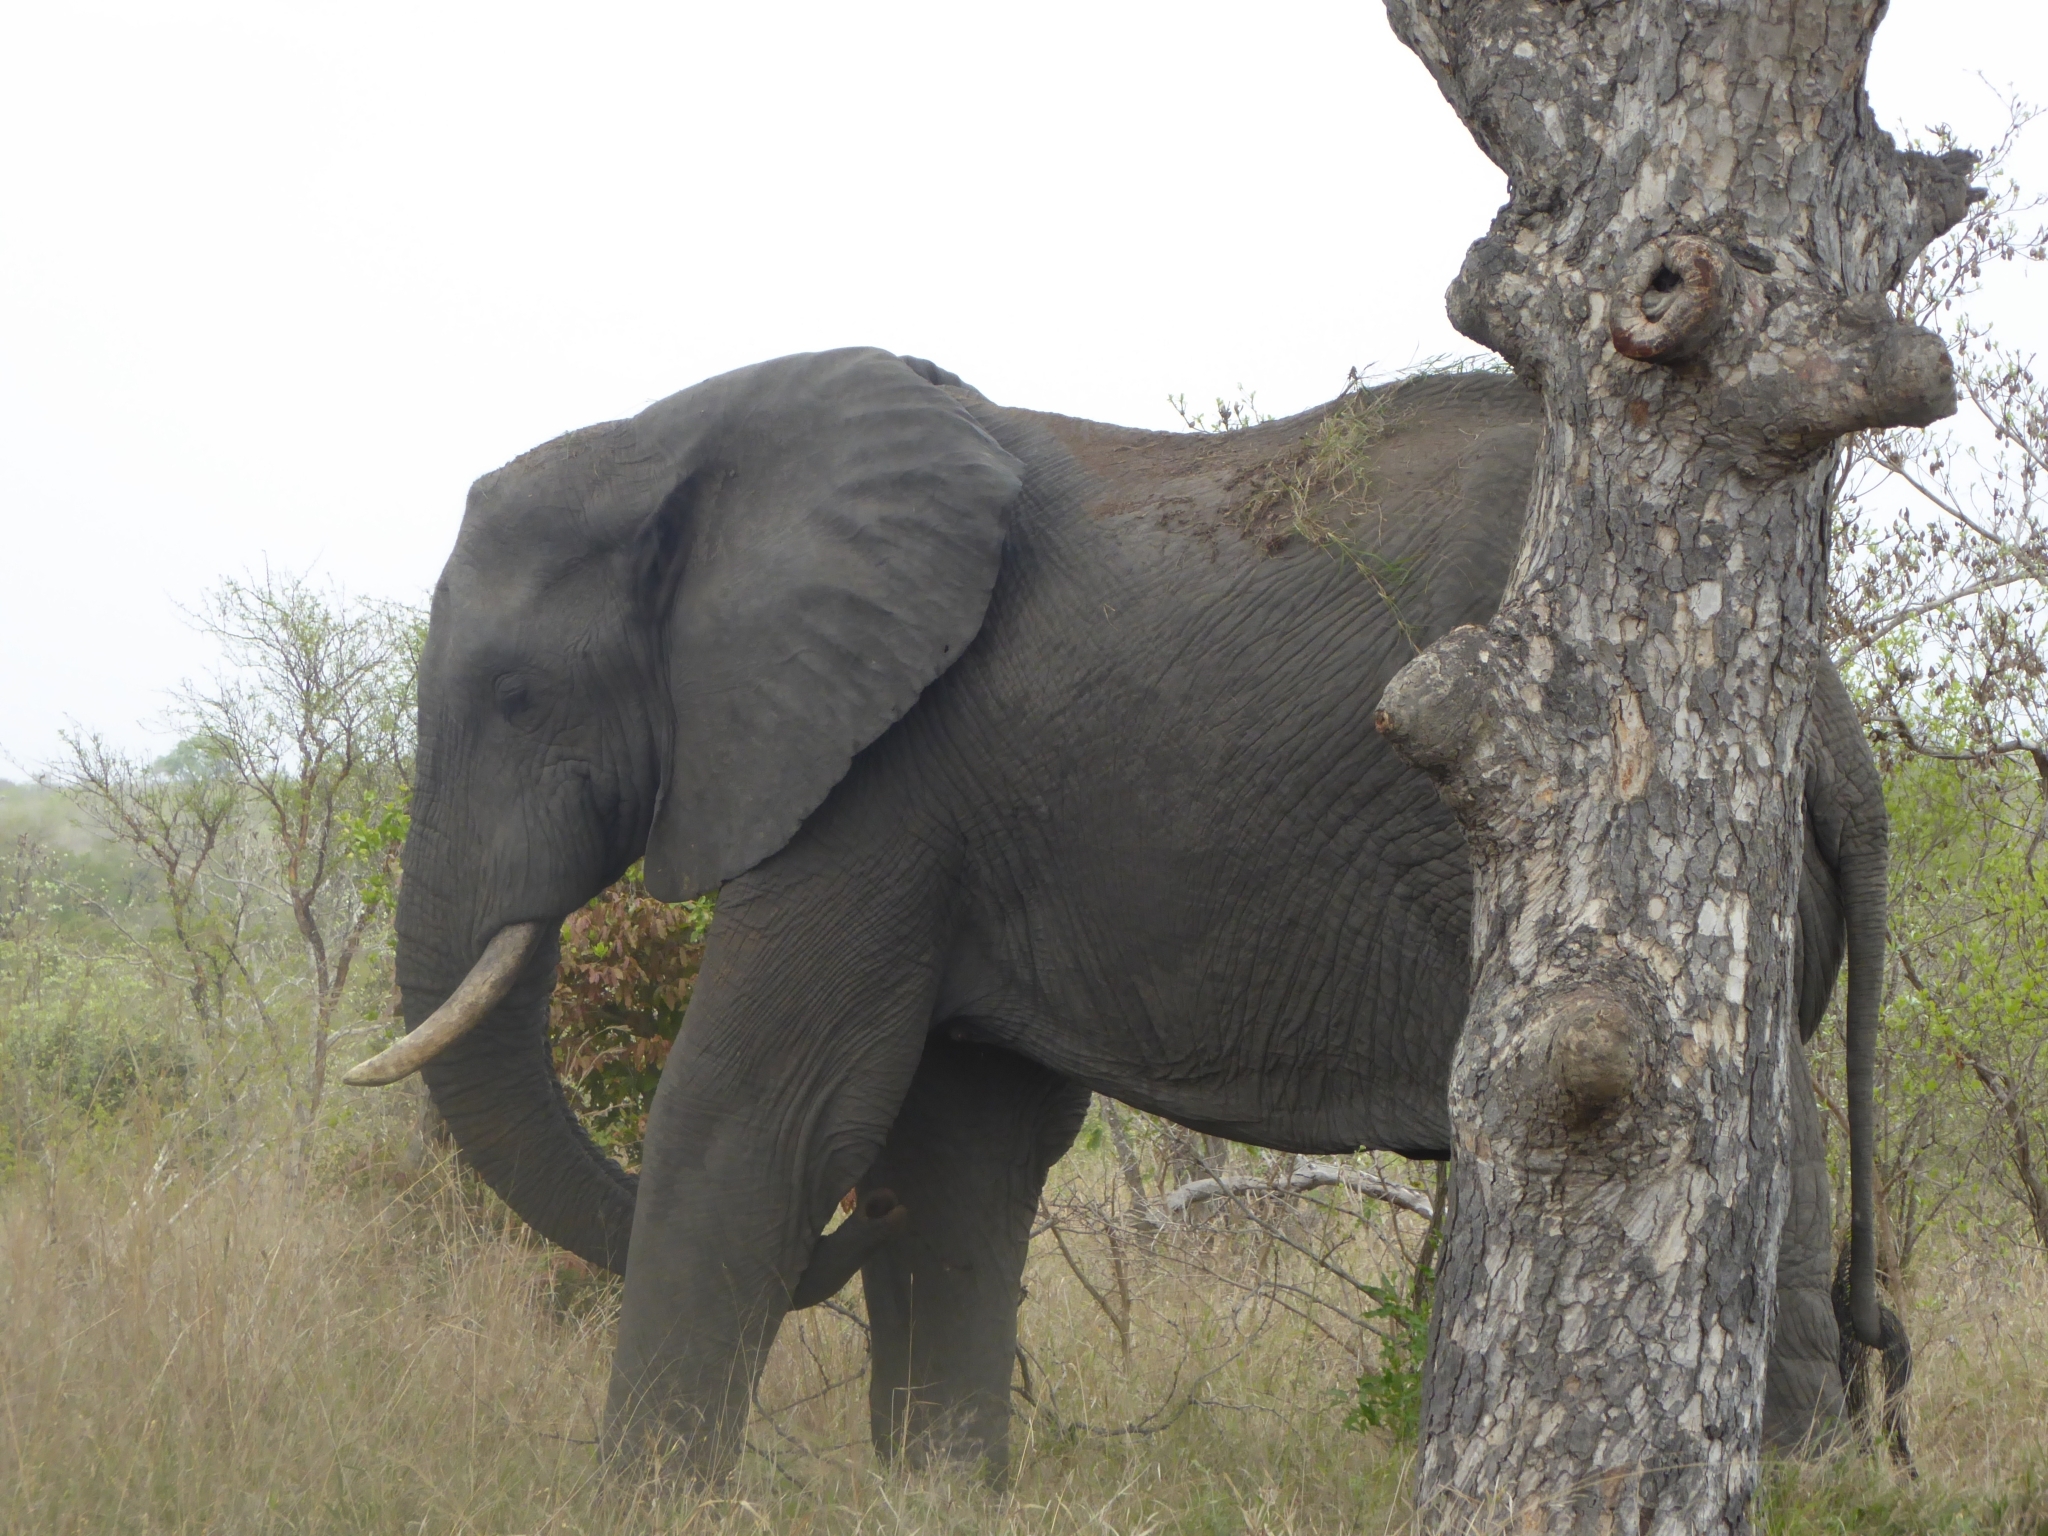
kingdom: Animalia
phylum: Chordata
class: Mammalia
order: Proboscidea
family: Elephantidae
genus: Loxodonta
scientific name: Loxodonta africana
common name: African elephant
